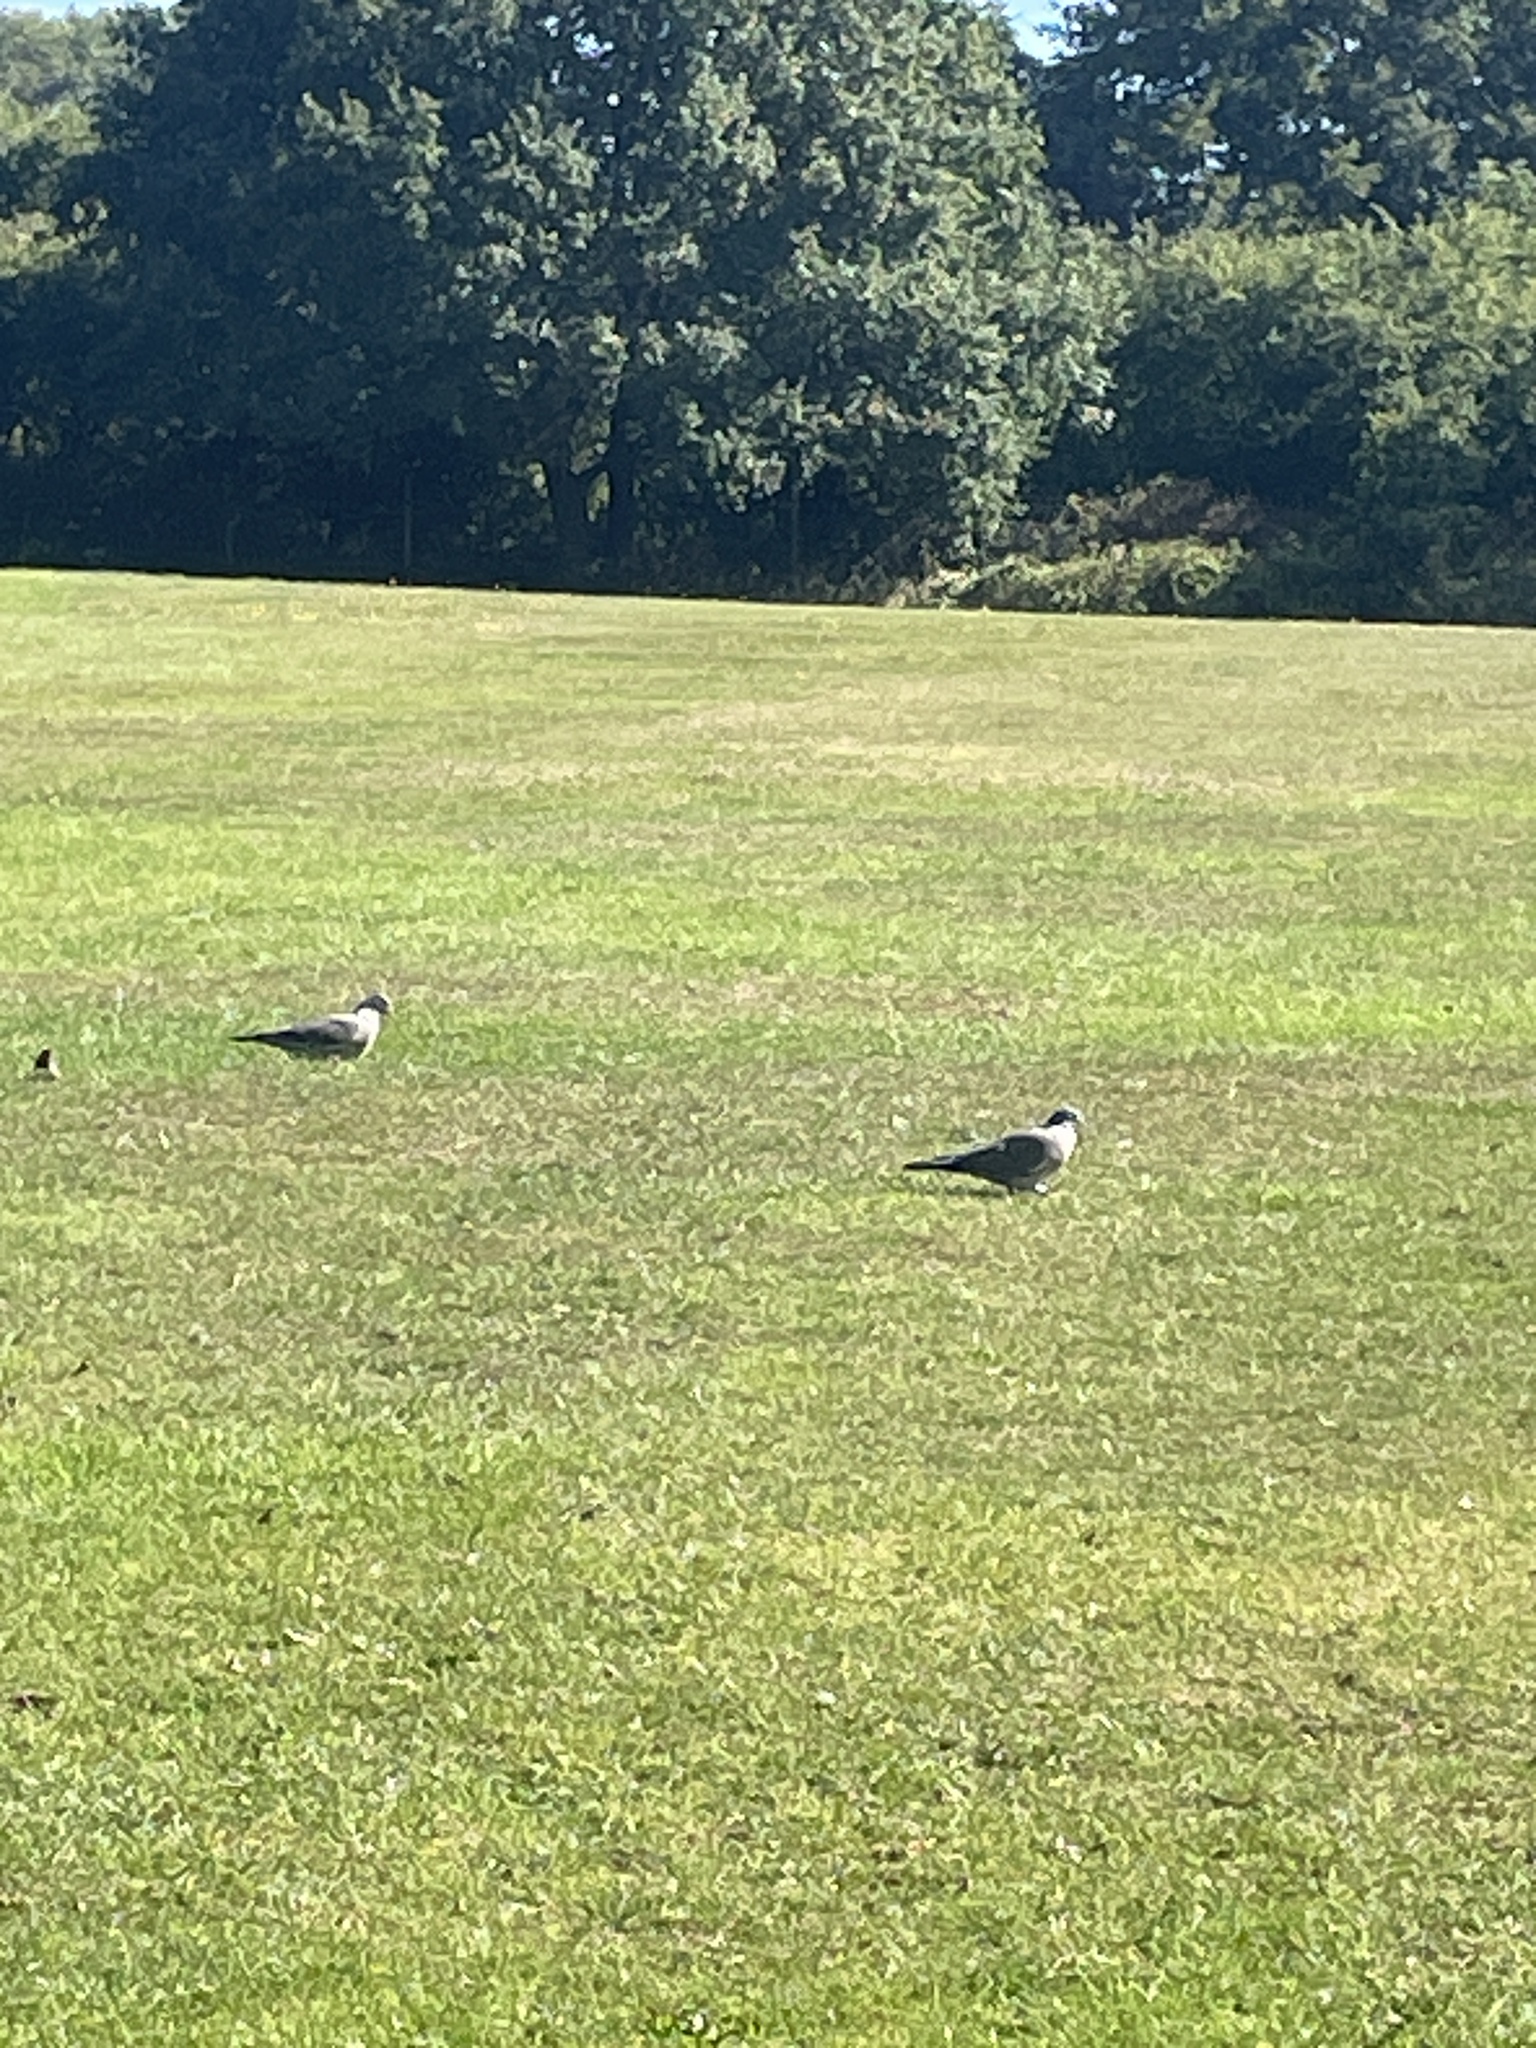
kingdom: Animalia
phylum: Chordata
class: Aves
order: Columbiformes
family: Columbidae
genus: Columba
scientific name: Columba palumbus
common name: Common wood pigeon
